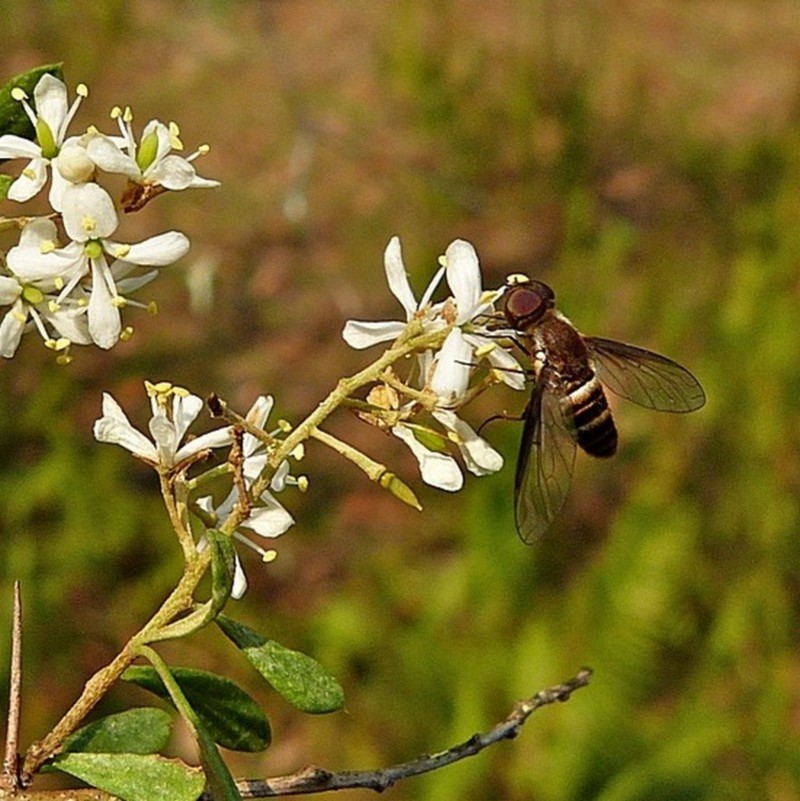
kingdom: Animalia
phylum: Arthropoda
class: Insecta
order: Diptera
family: Bombyliidae
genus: Villa
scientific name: Villa
